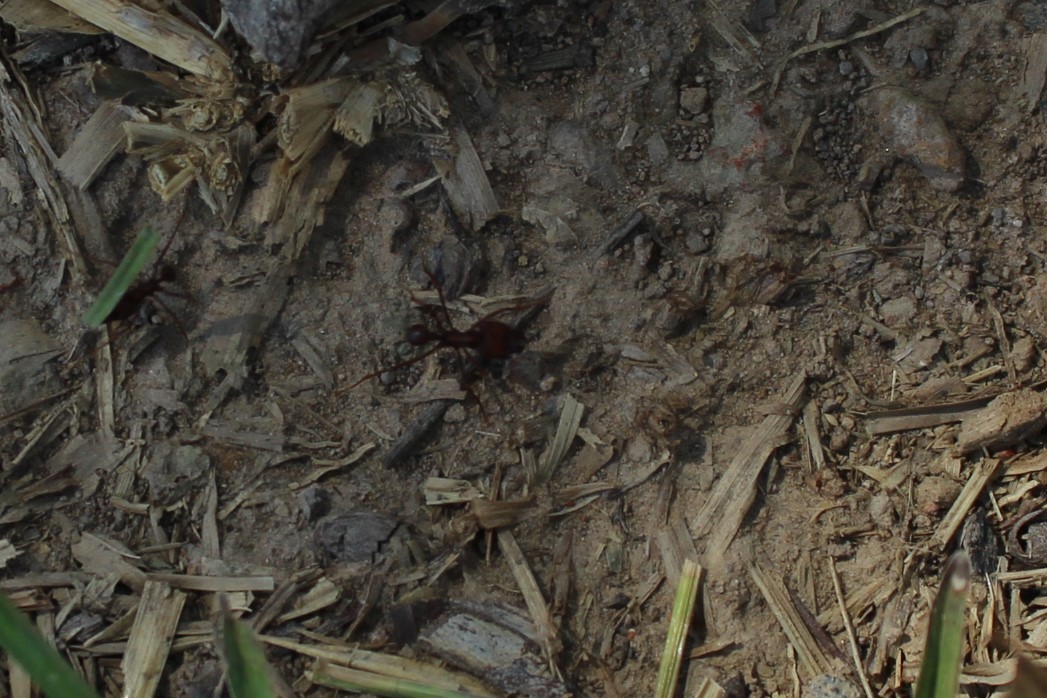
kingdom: Animalia
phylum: Arthropoda
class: Insecta
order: Hymenoptera
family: Formicidae
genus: Atta
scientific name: Atta sexdens
